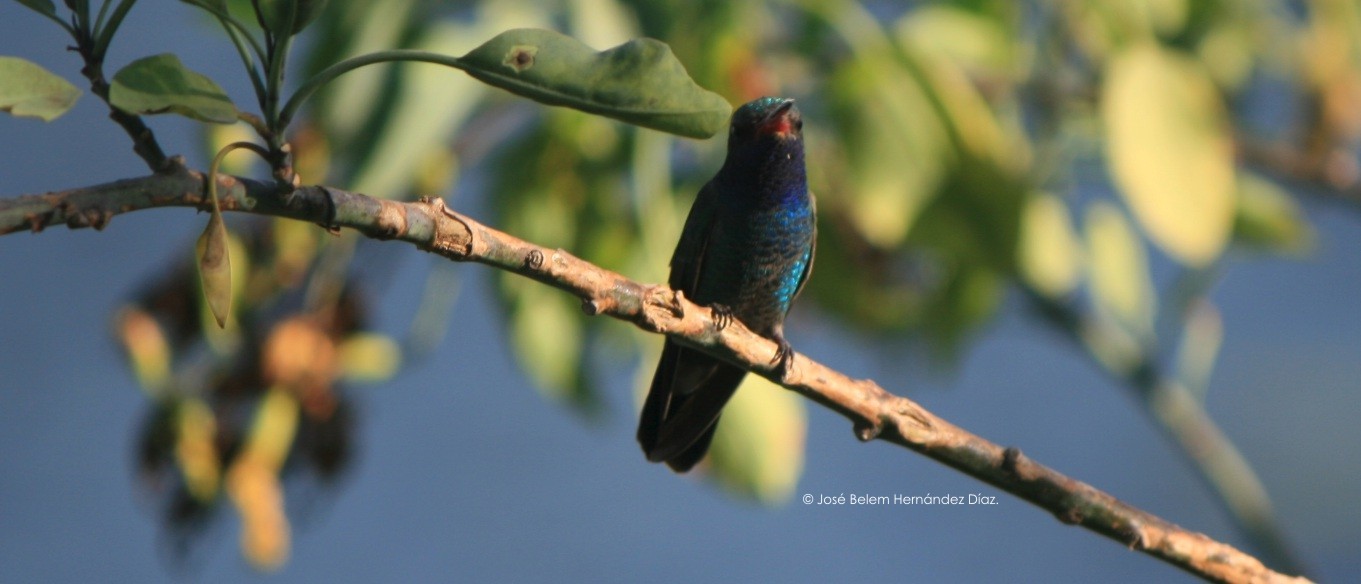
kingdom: Animalia
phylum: Chordata
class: Aves
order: Apodiformes
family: Trochilidae
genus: Cynanthus
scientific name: Cynanthus latirostris
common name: Broad-billed hummingbird
